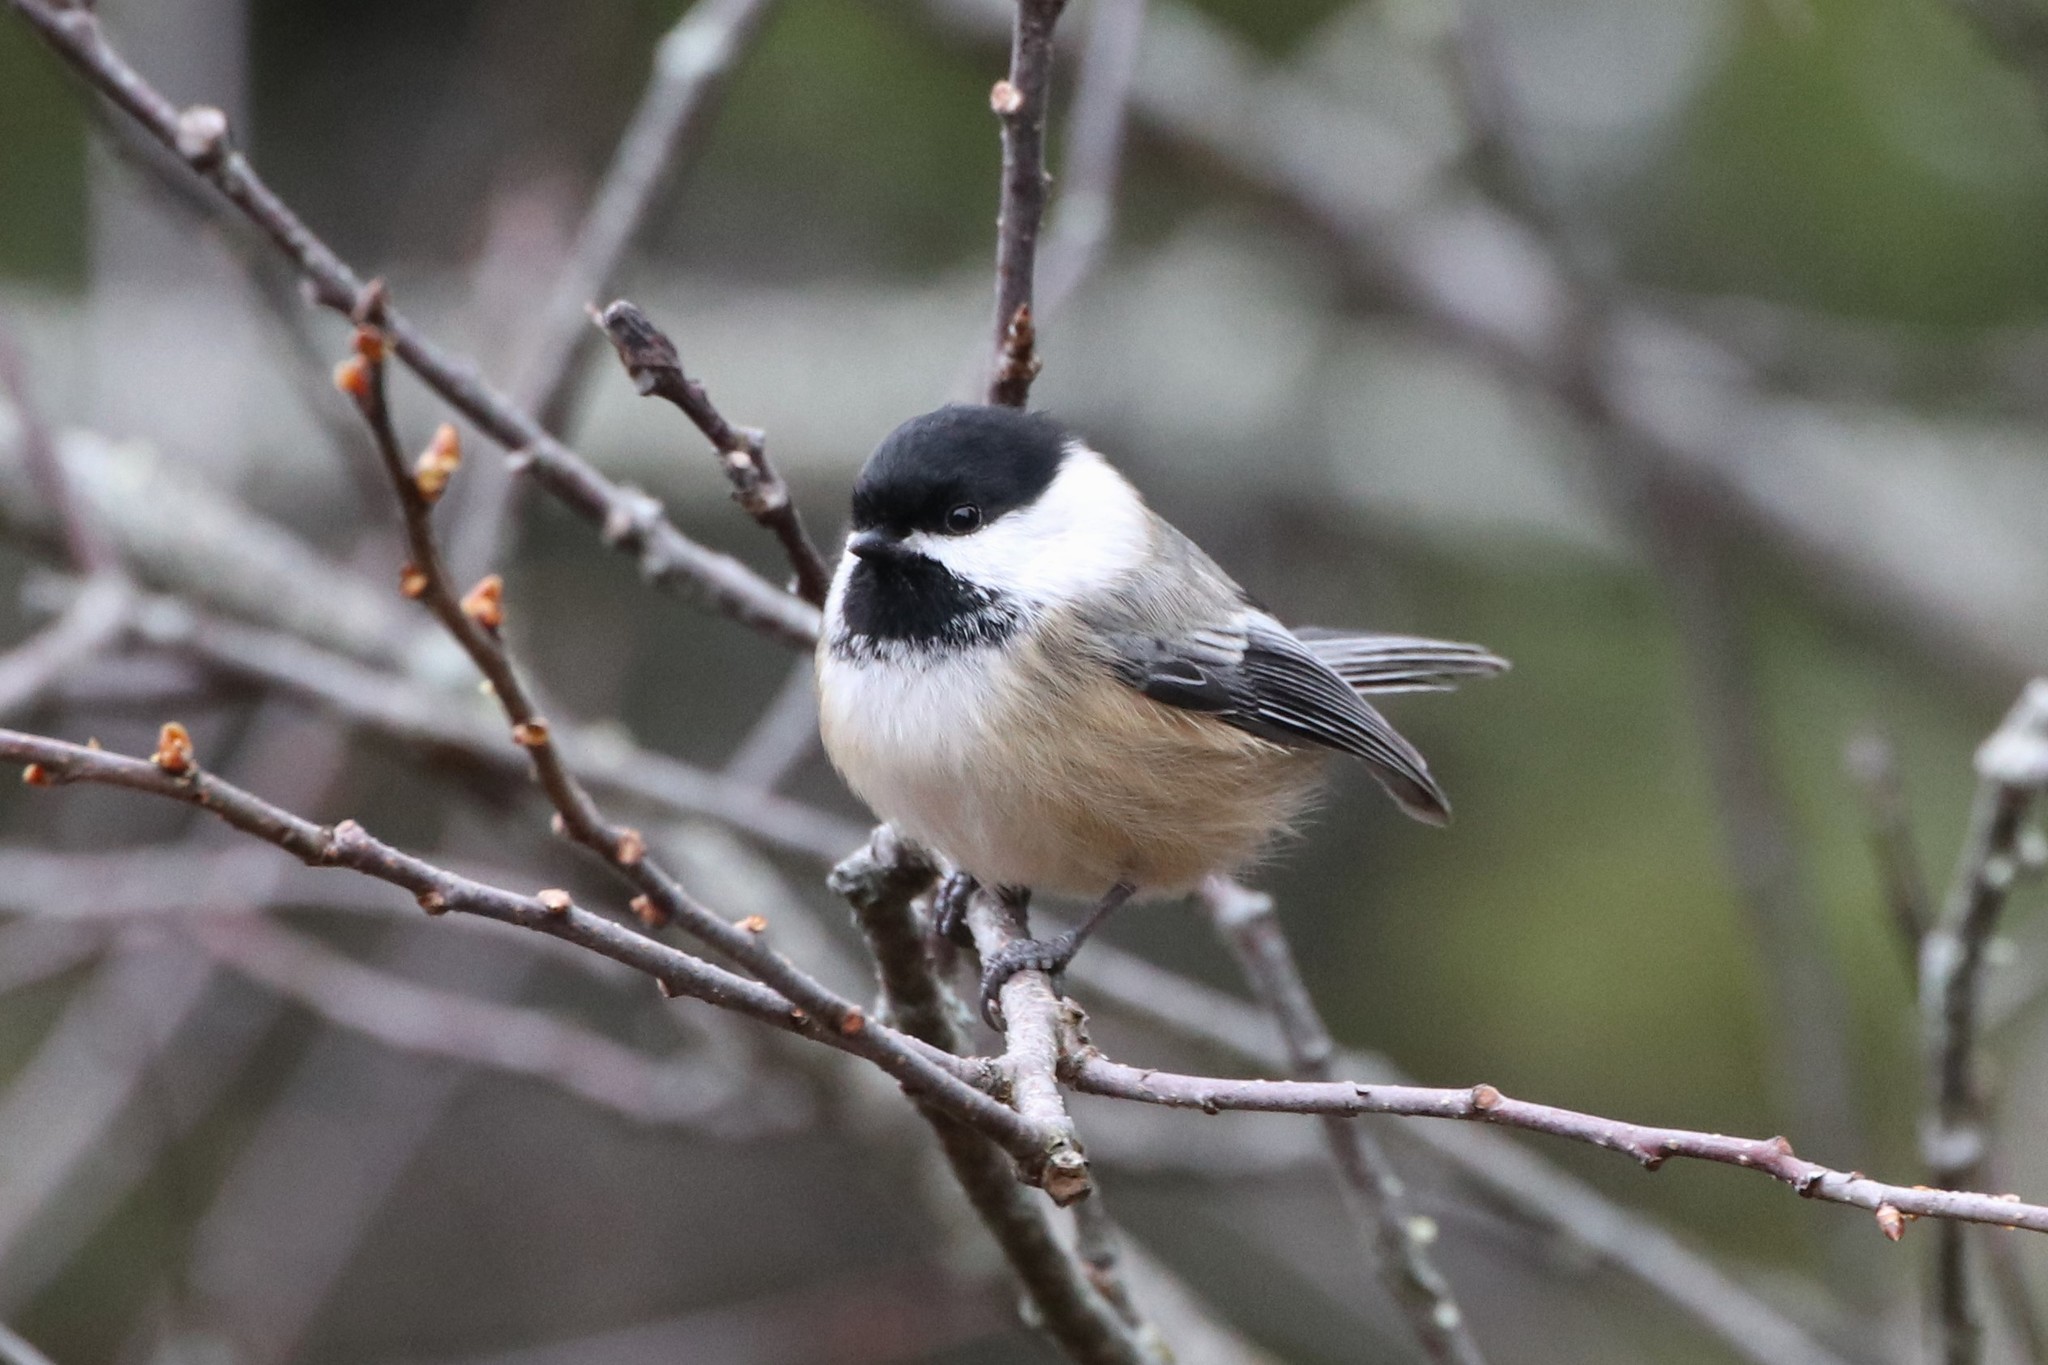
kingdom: Animalia
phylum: Chordata
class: Aves
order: Passeriformes
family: Paridae
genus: Poecile
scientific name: Poecile atricapillus
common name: Black-capped chickadee
